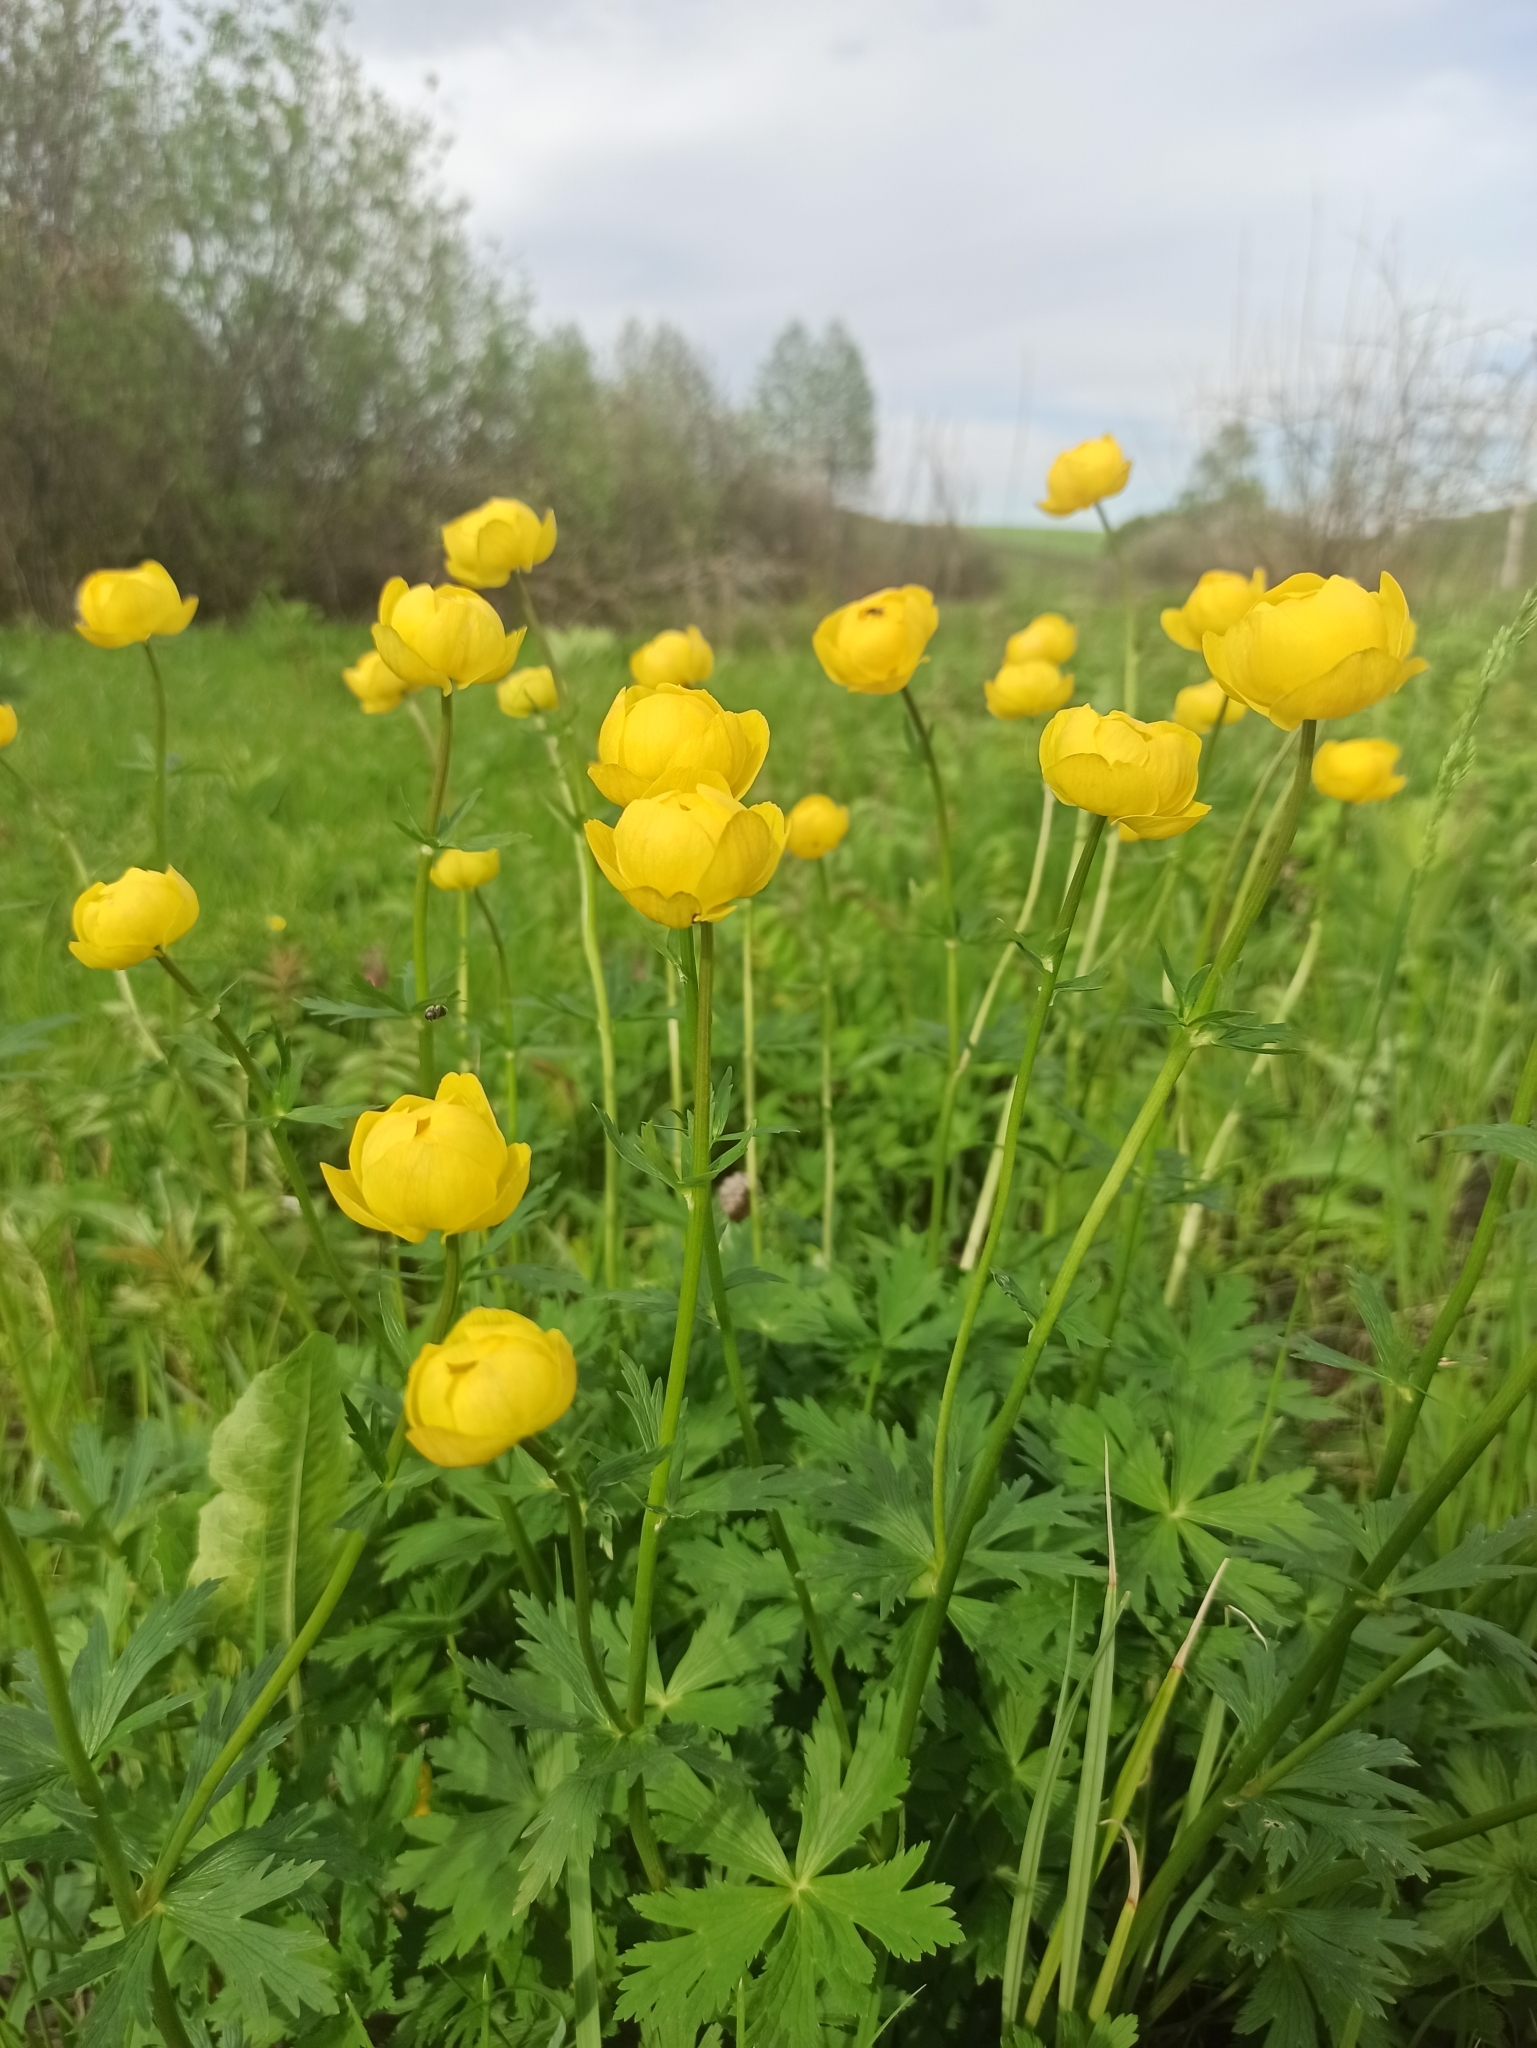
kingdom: Plantae
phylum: Tracheophyta
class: Magnoliopsida
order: Ranunculales
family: Ranunculaceae
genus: Trollius
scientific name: Trollius europaeus
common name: European globeflower
